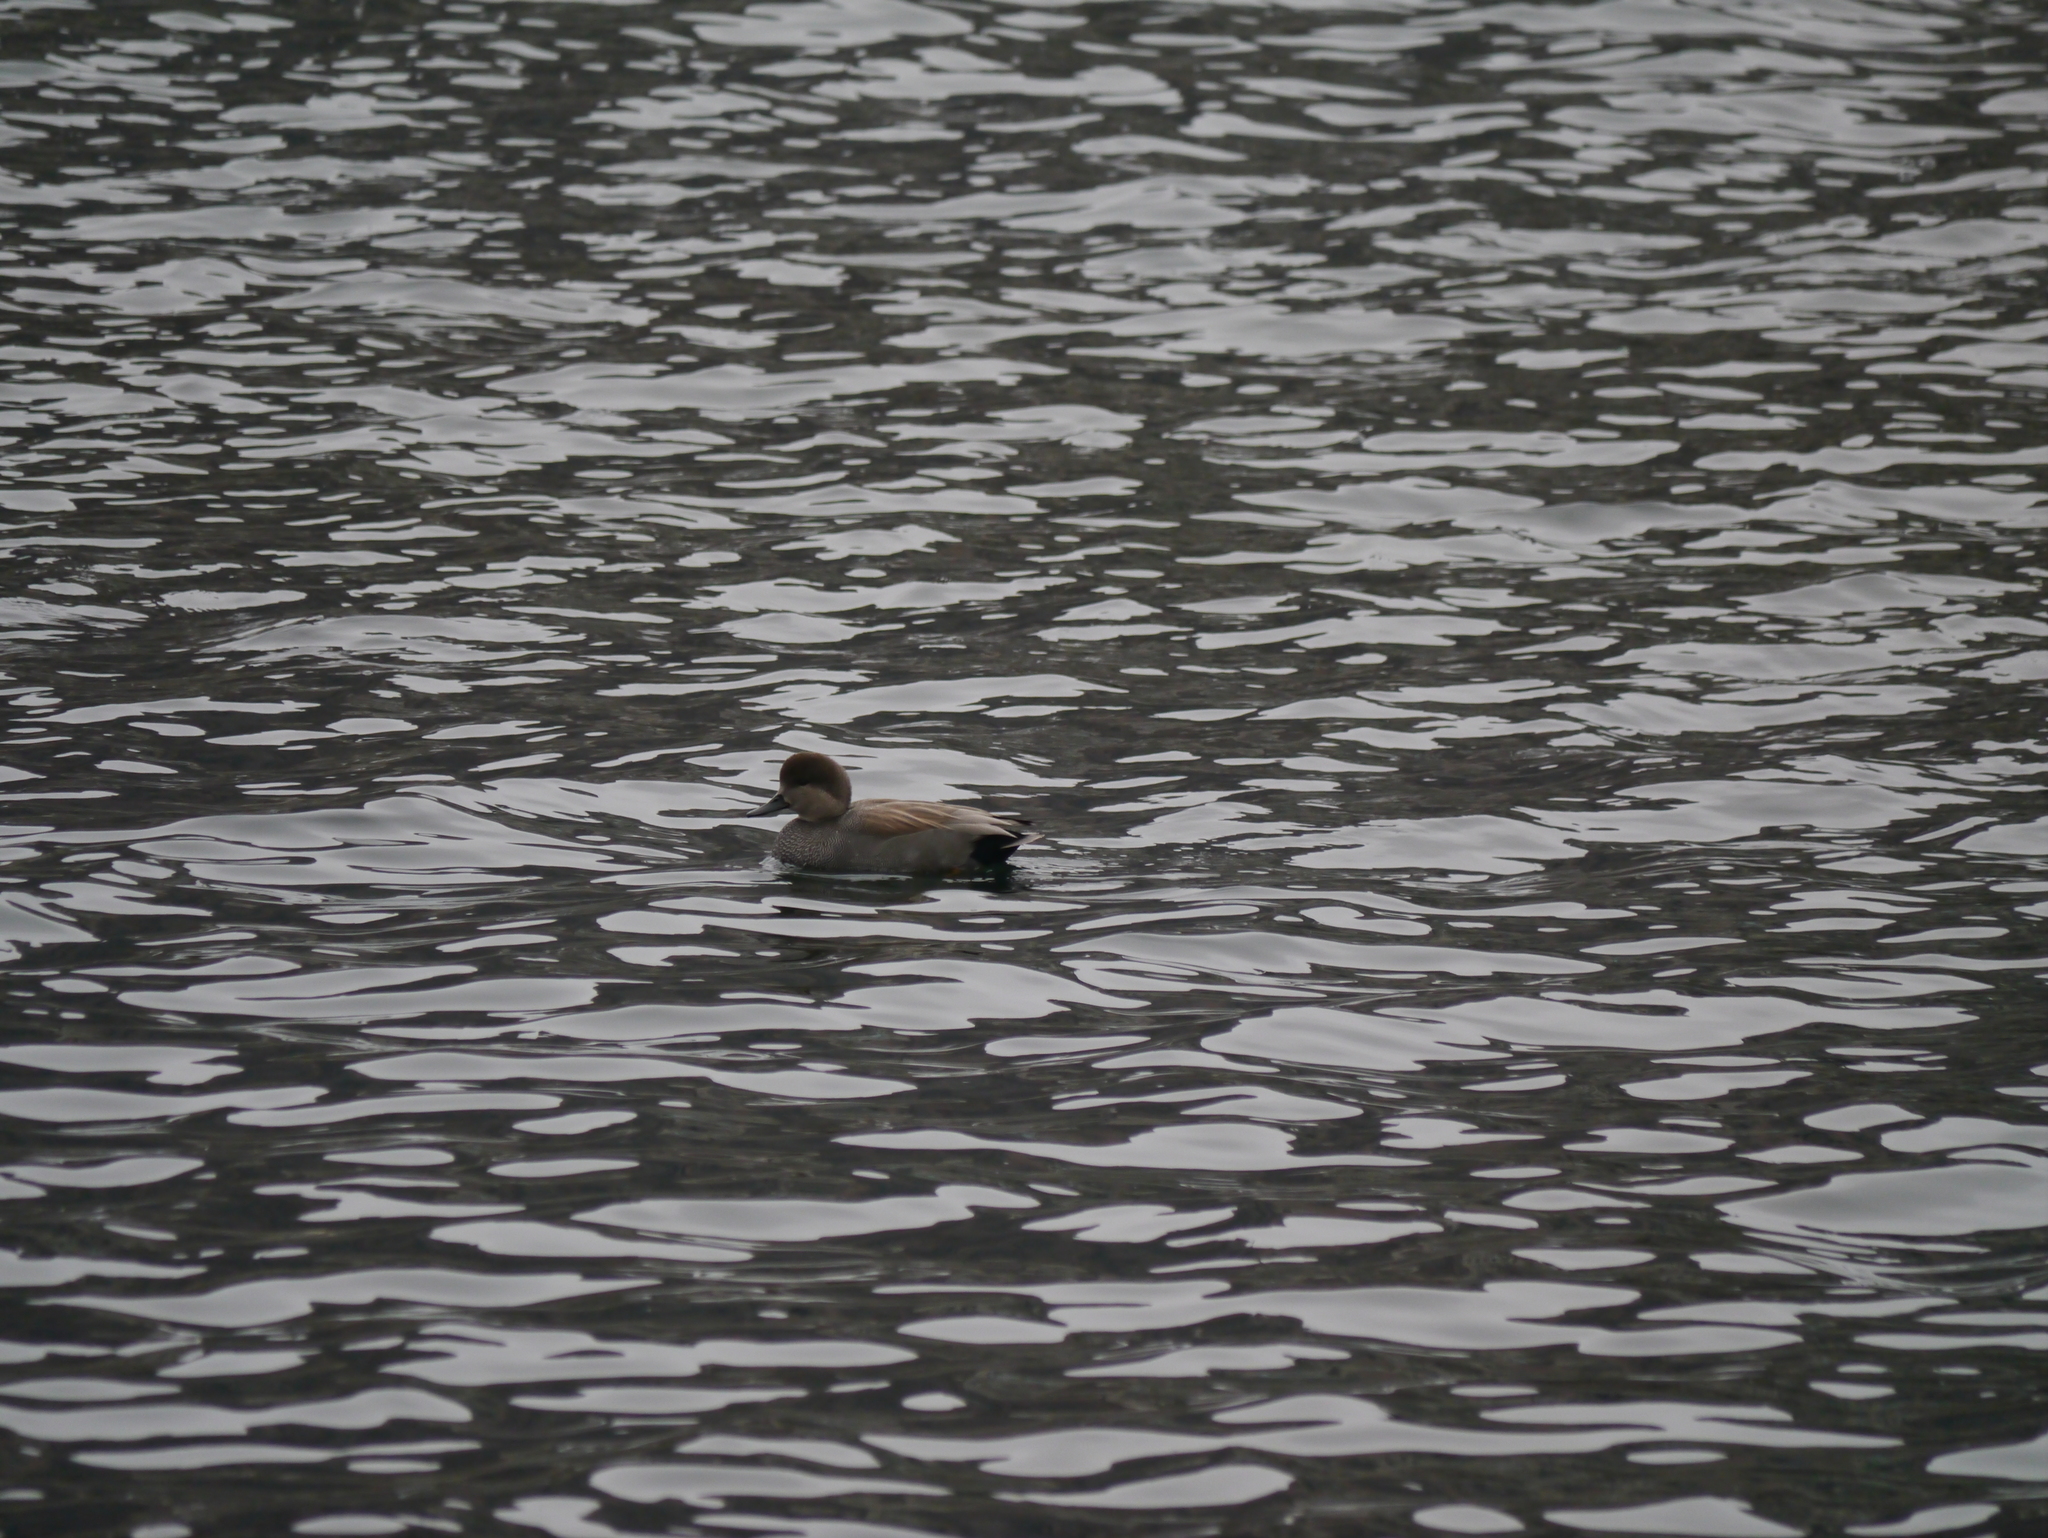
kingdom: Animalia
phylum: Chordata
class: Aves
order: Anseriformes
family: Anatidae
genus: Mareca
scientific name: Mareca strepera
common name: Gadwall
